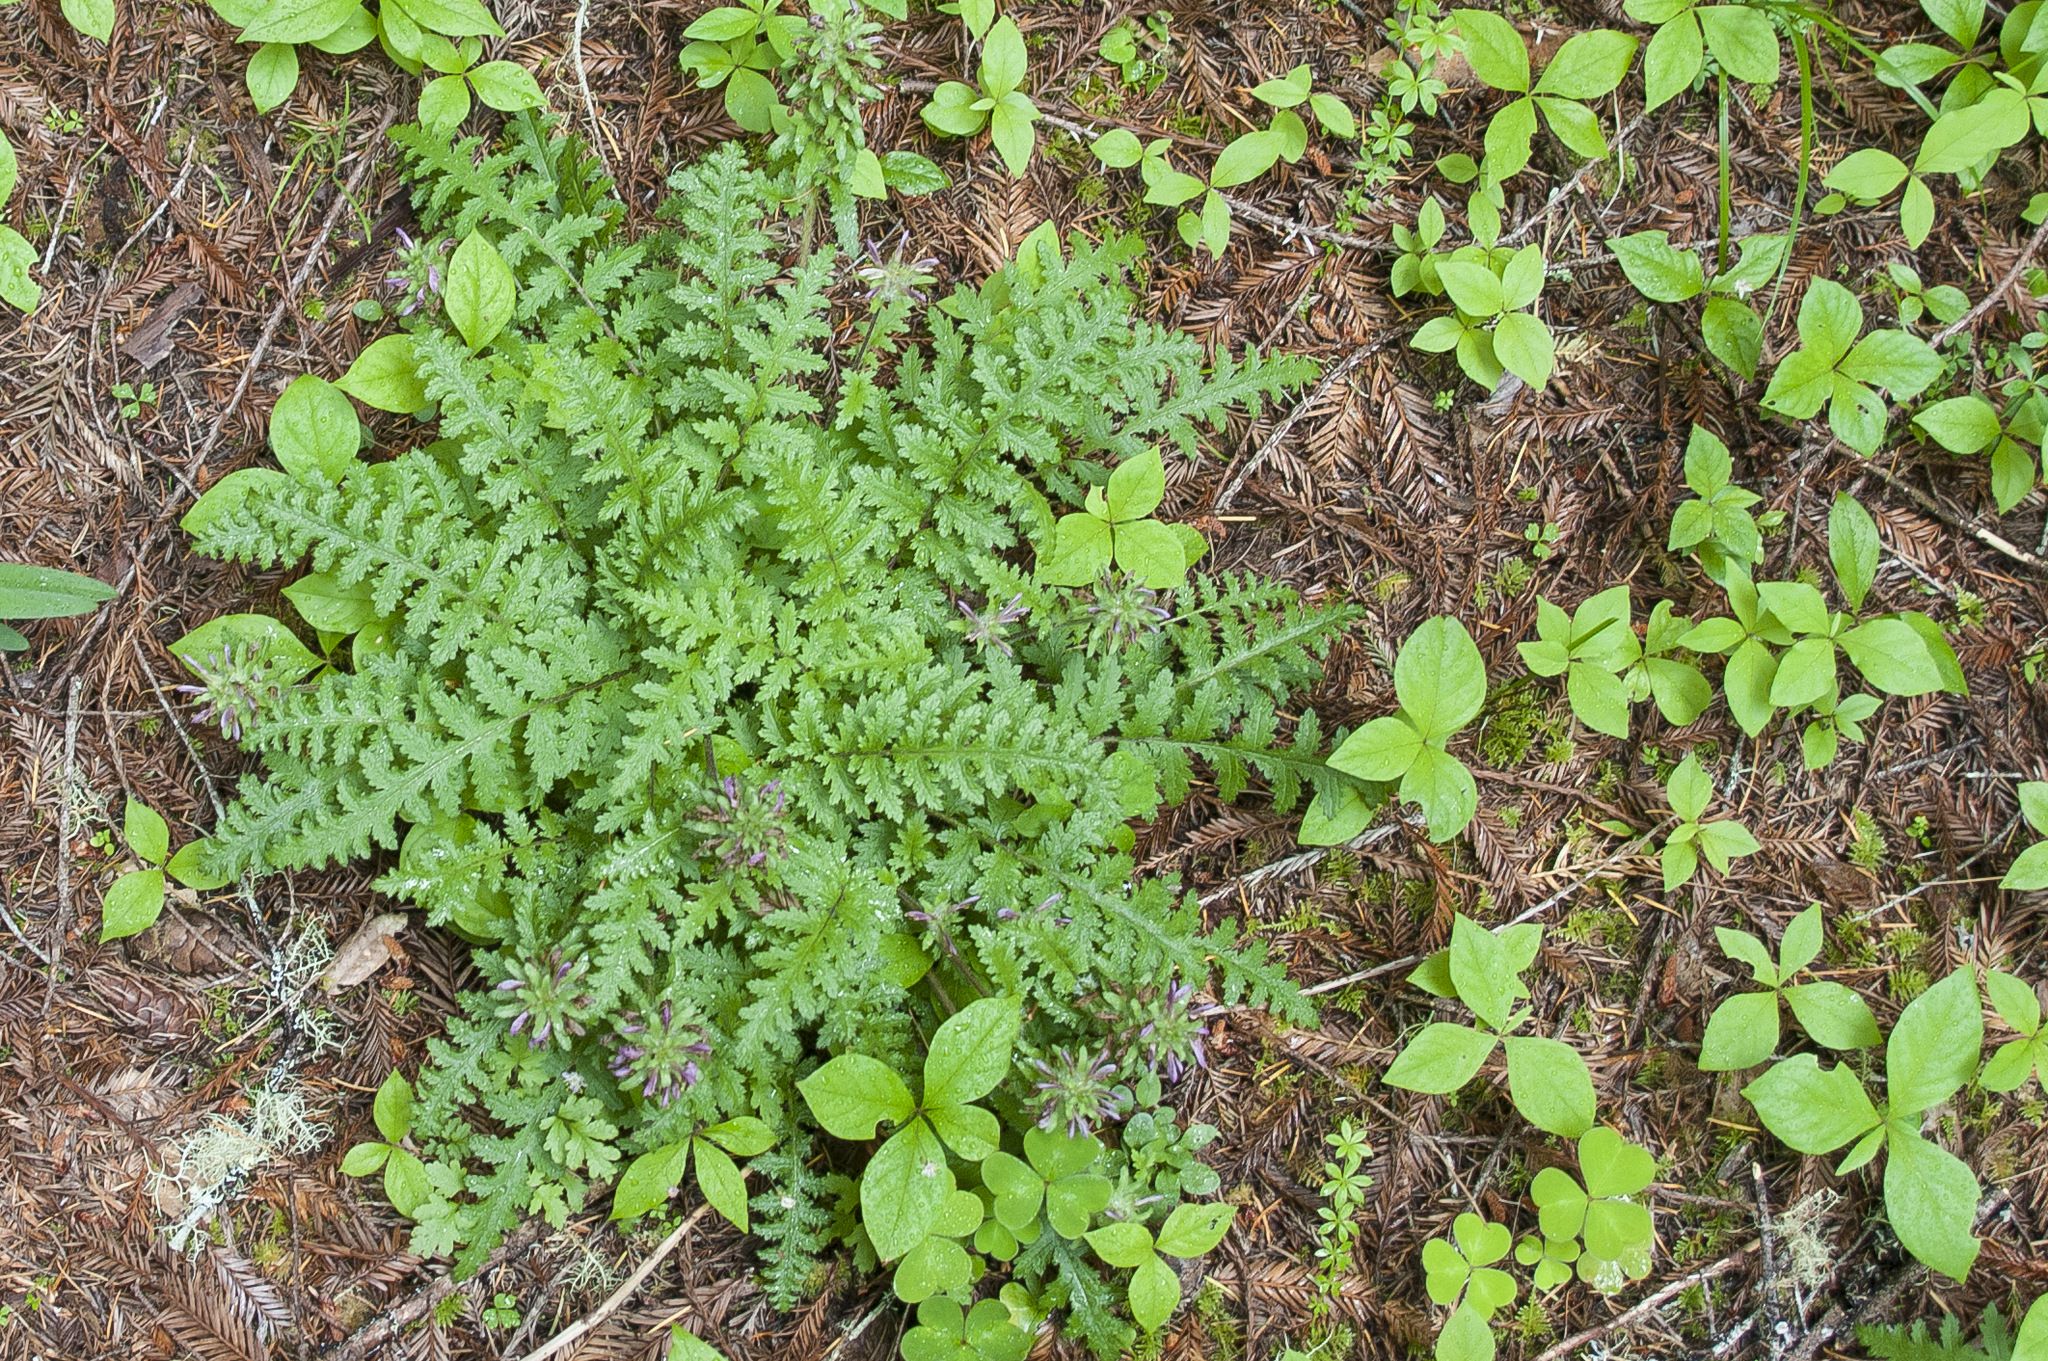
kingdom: Plantae
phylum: Tracheophyta
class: Magnoliopsida
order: Lamiales
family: Orobanchaceae
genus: Pedicularis
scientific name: Pedicularis dudleyi
